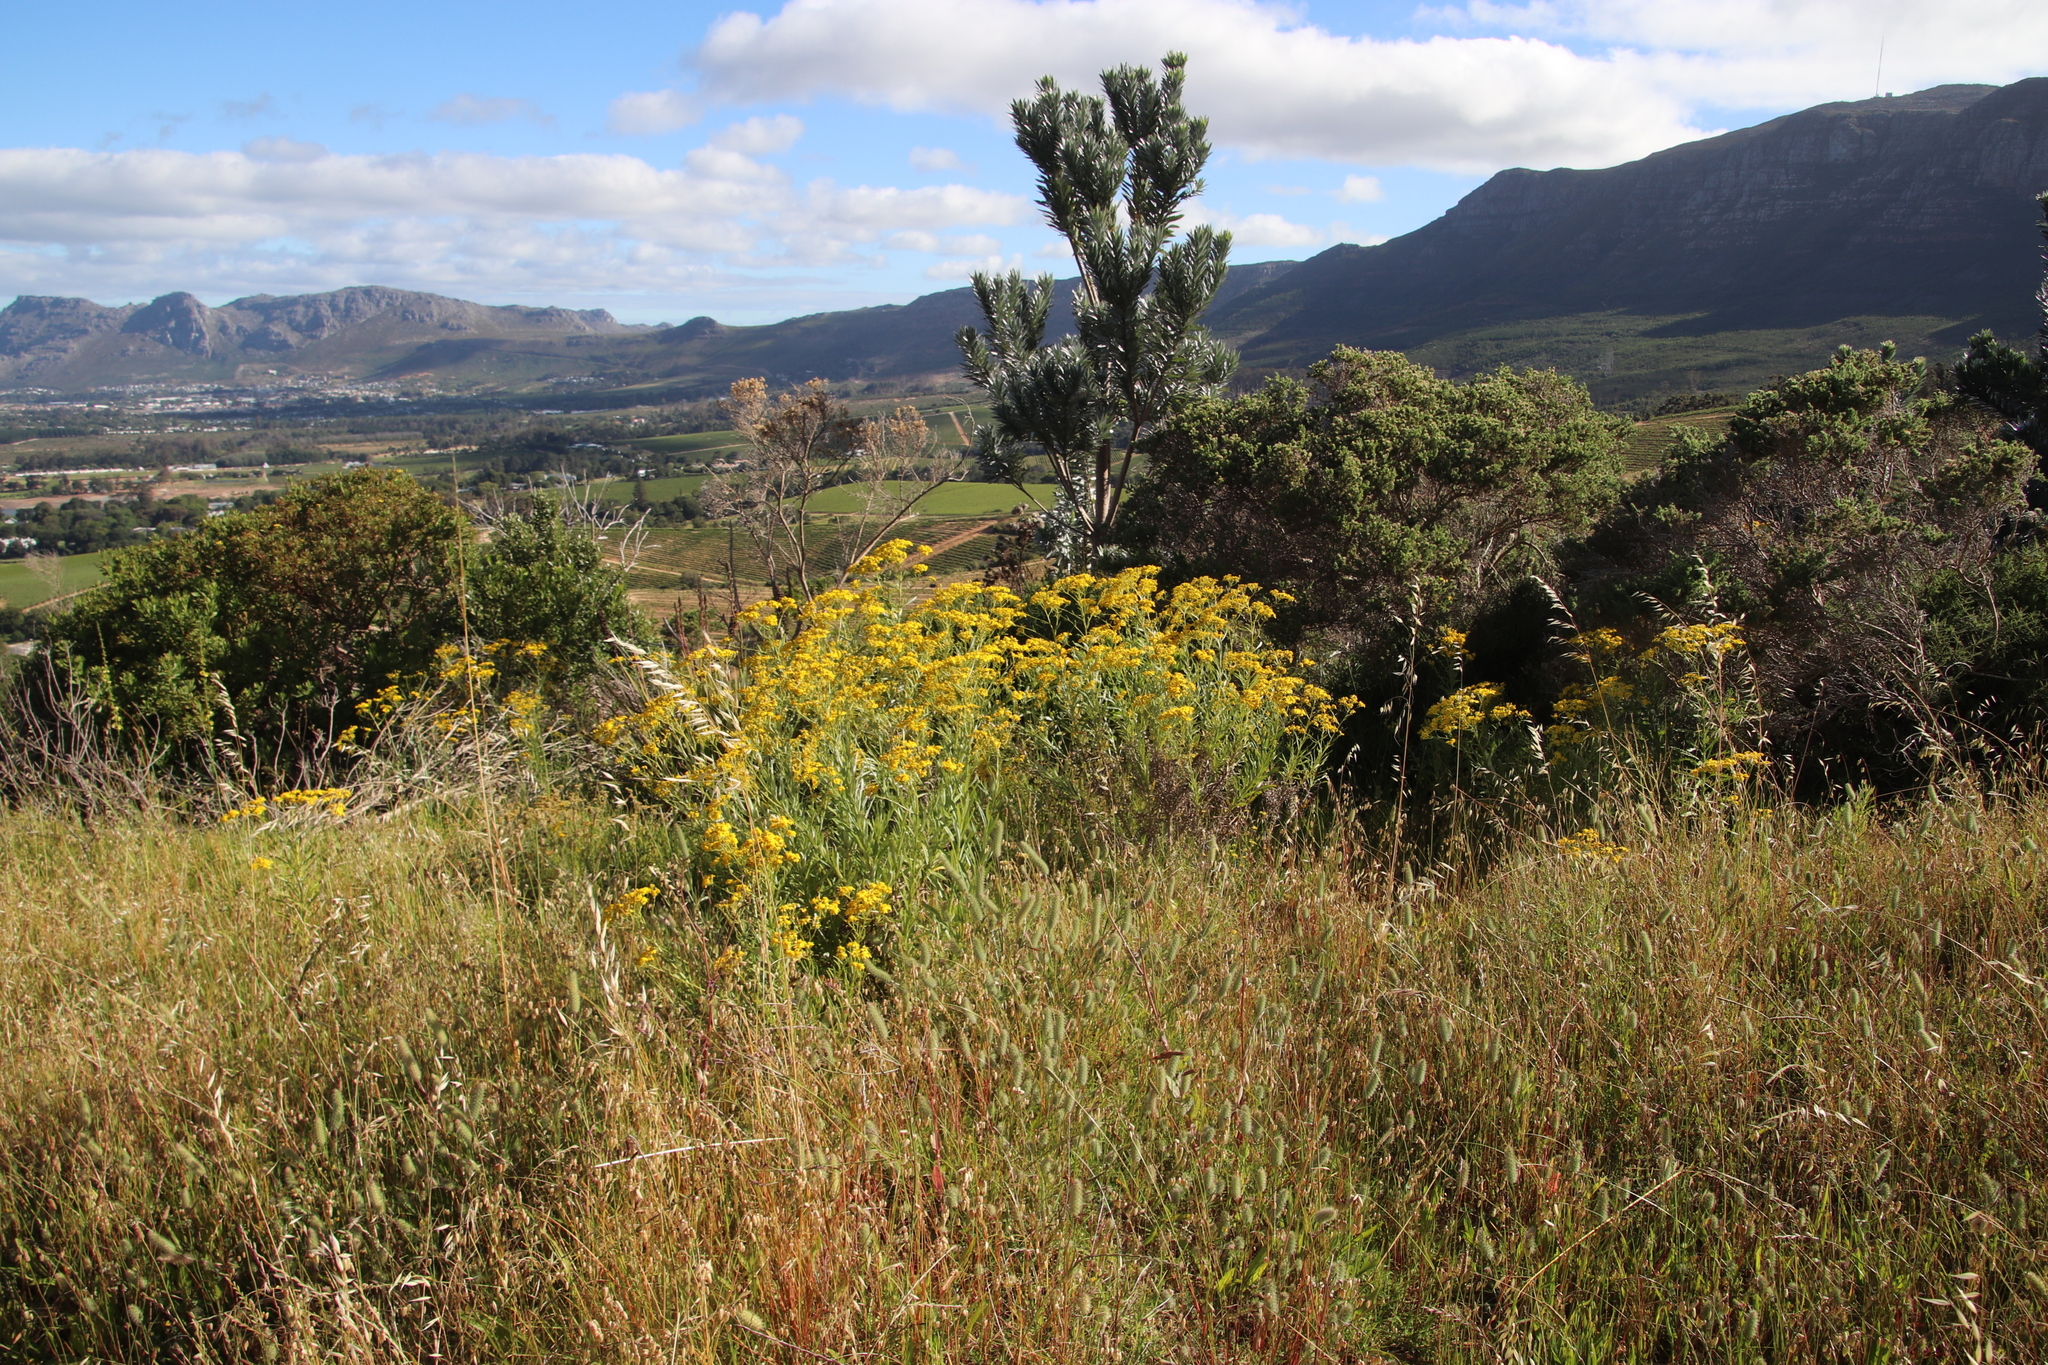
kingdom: Plantae
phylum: Tracheophyta
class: Magnoliopsida
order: Asterales
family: Asteraceae
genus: Senecio
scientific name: Senecio pterophorus
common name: Shoddy ragwort
